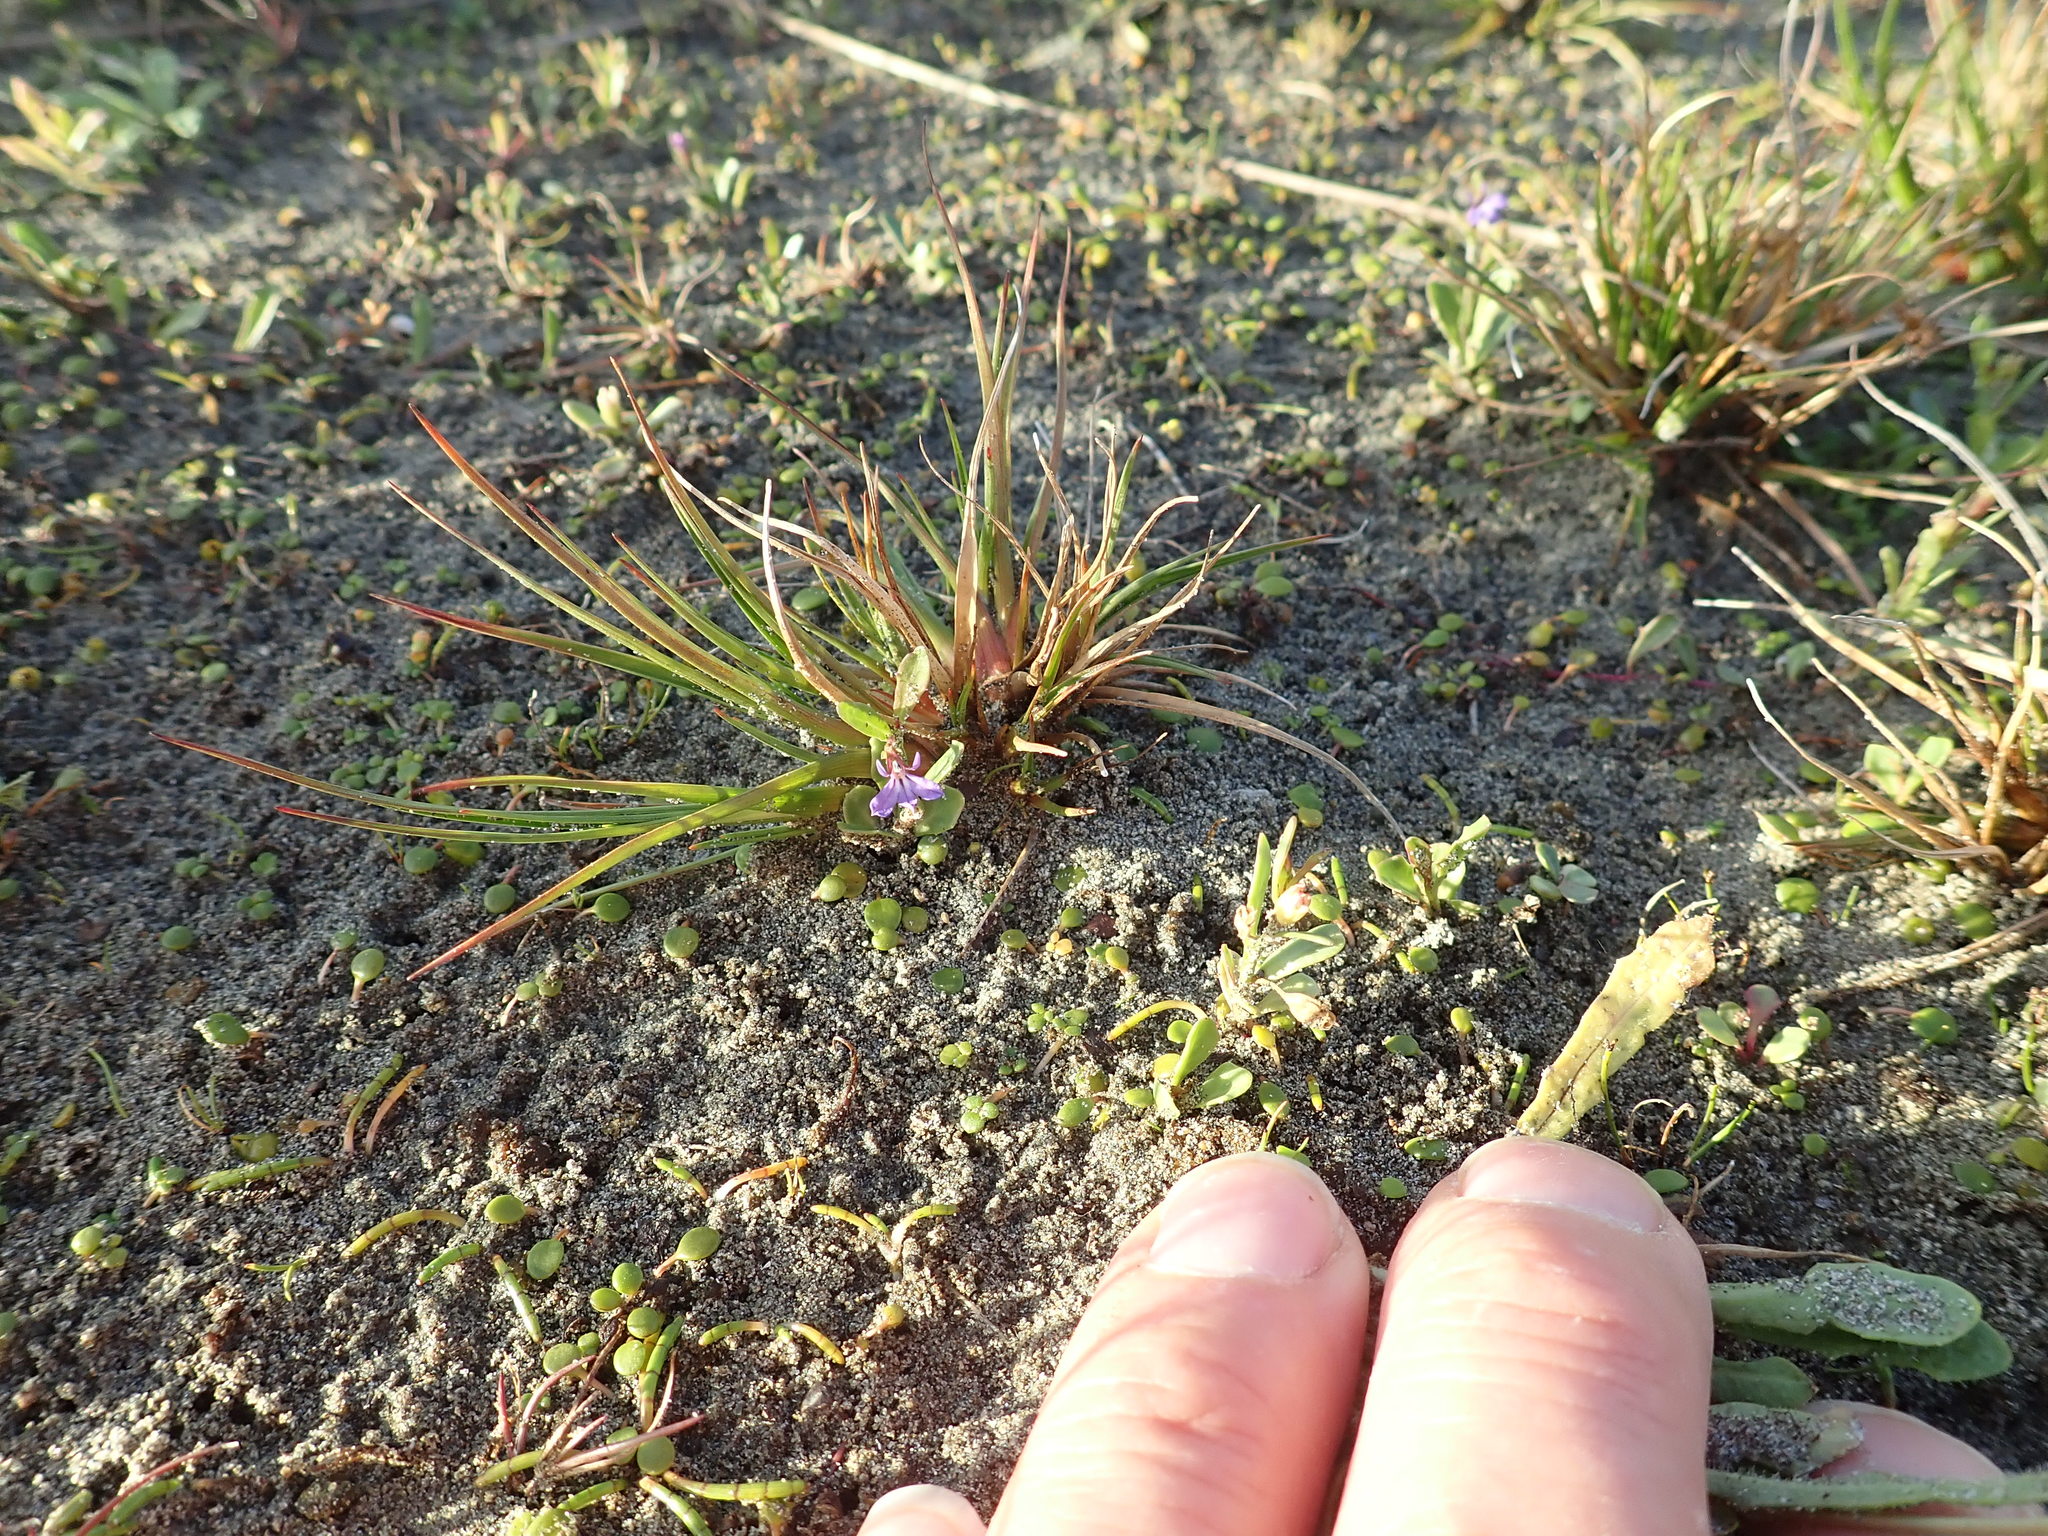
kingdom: Plantae
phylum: Tracheophyta
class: Magnoliopsida
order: Asterales
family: Campanulaceae
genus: Lobelia
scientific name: Lobelia anceps
